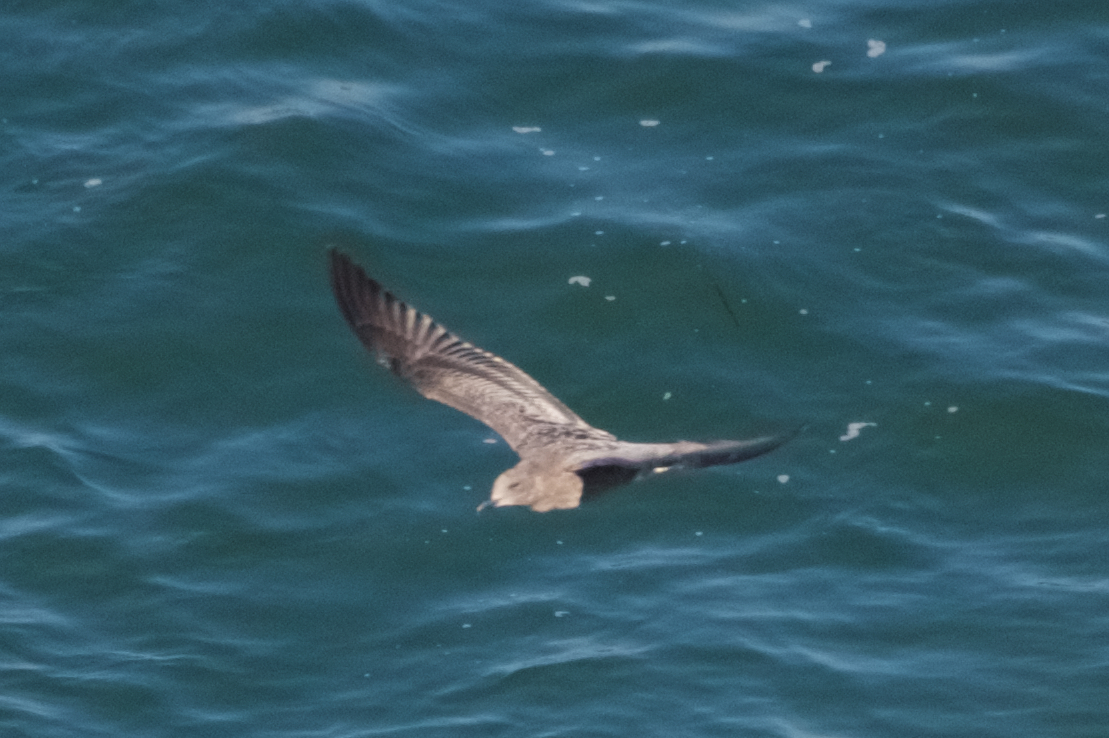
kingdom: Animalia
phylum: Chordata
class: Aves
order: Charadriiformes
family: Laridae
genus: Larus
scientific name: Larus occidentalis
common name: Western gull
